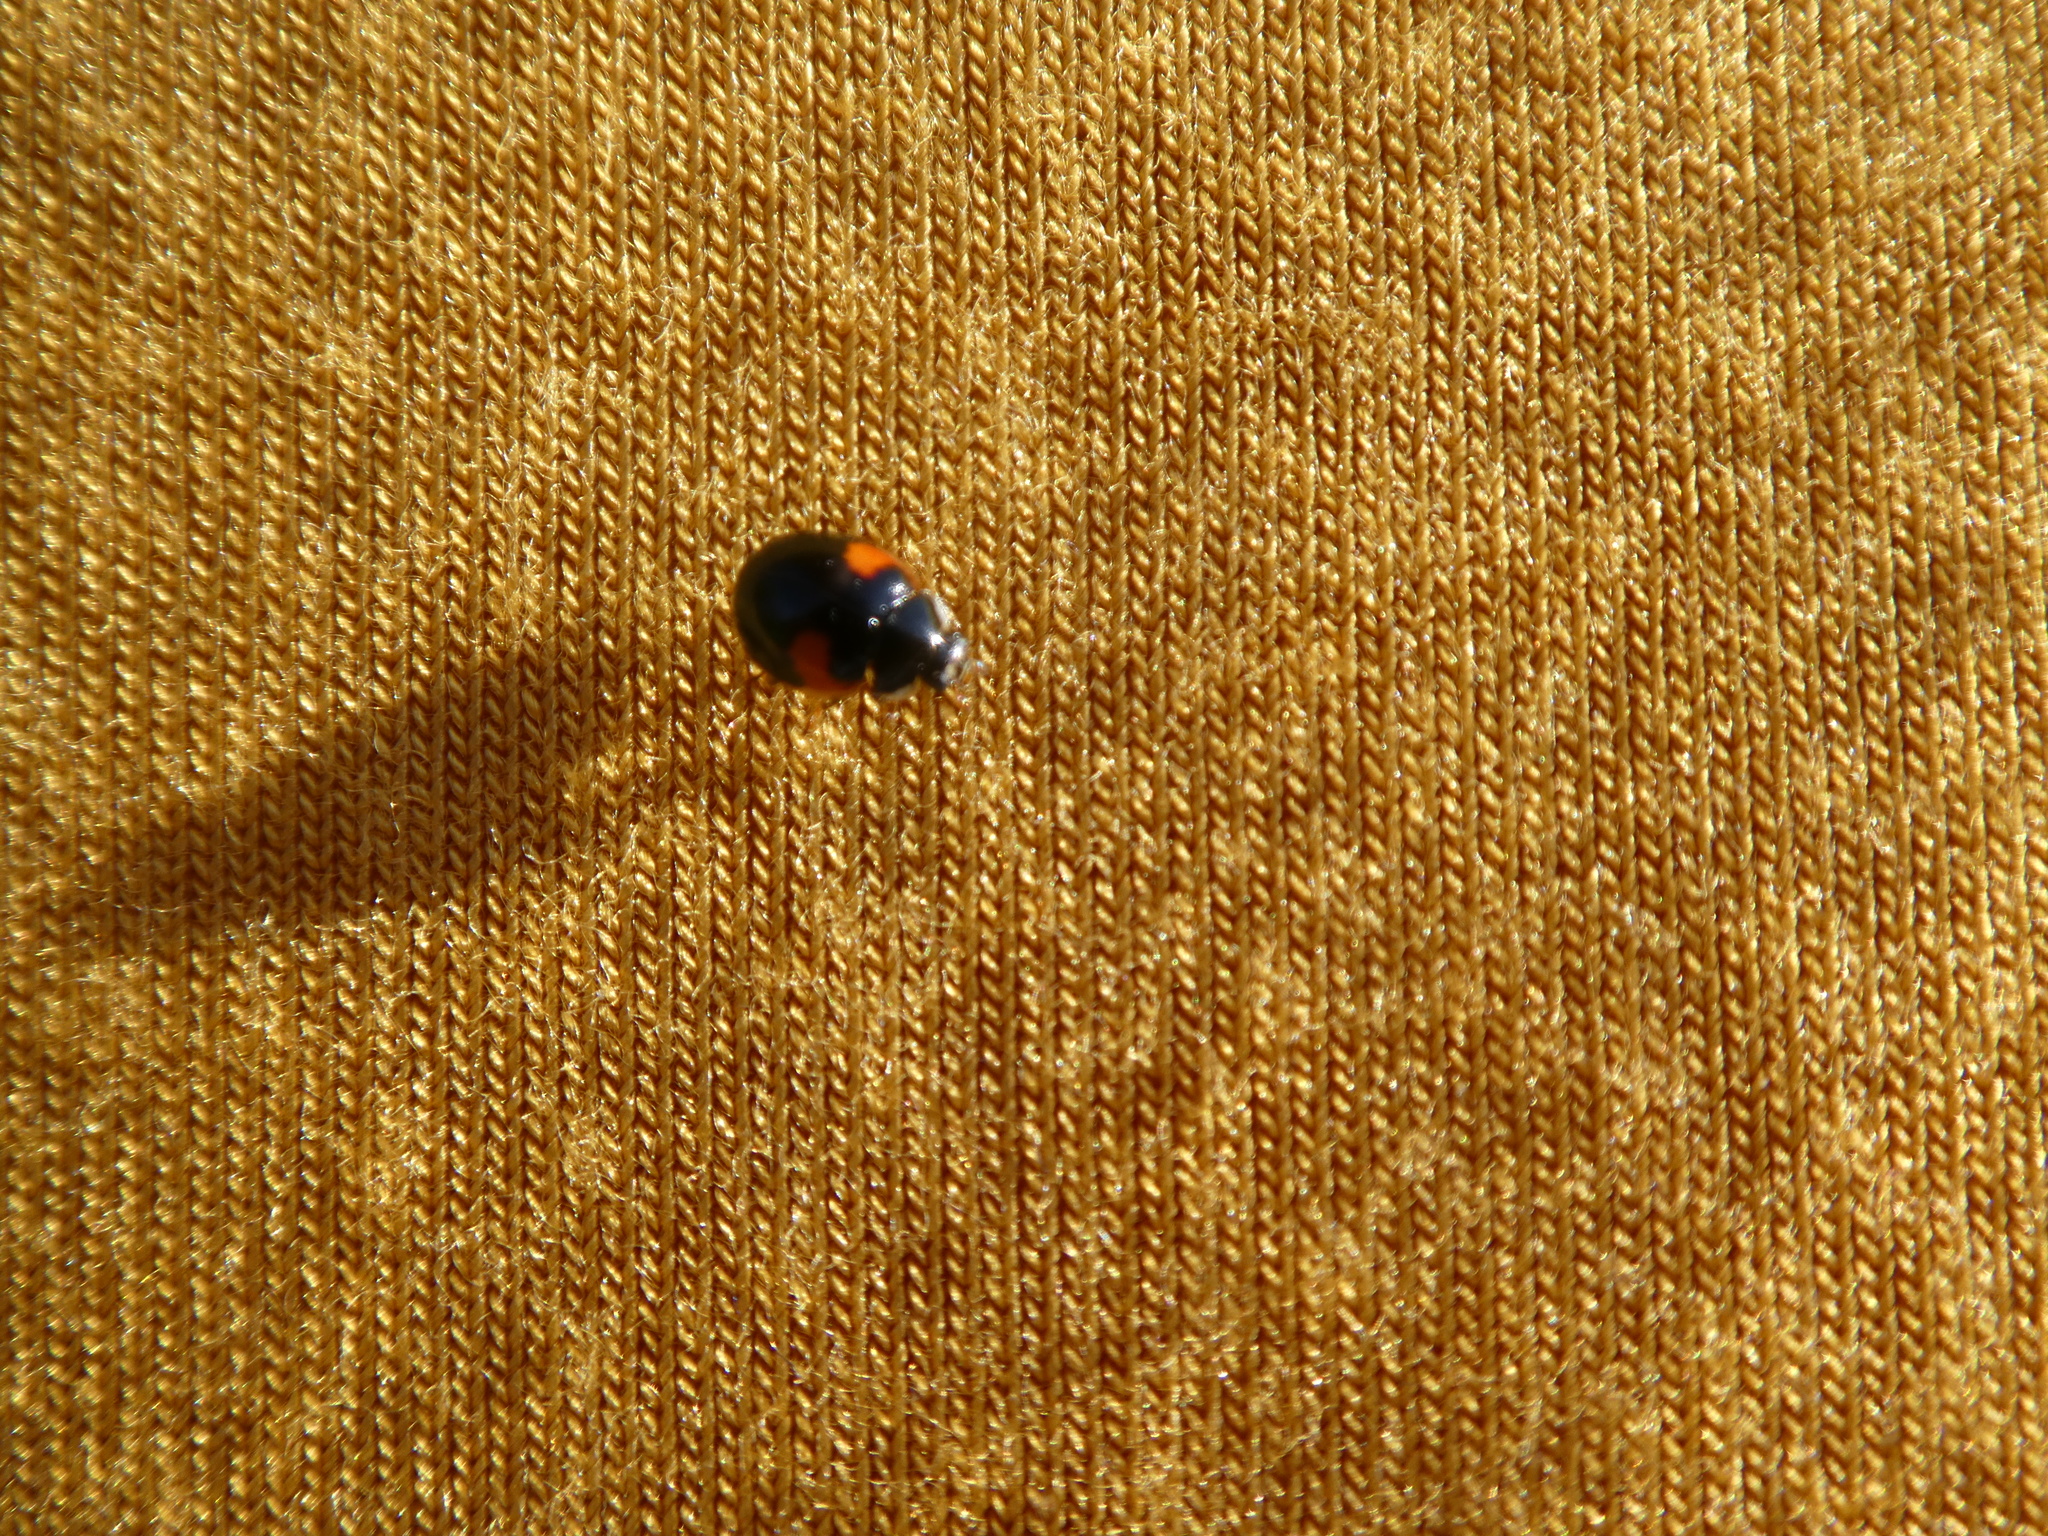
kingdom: Animalia
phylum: Arthropoda
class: Insecta
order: Coleoptera
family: Coccinellidae
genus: Adalia
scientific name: Adalia decempunctata
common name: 10-spot ladybird
